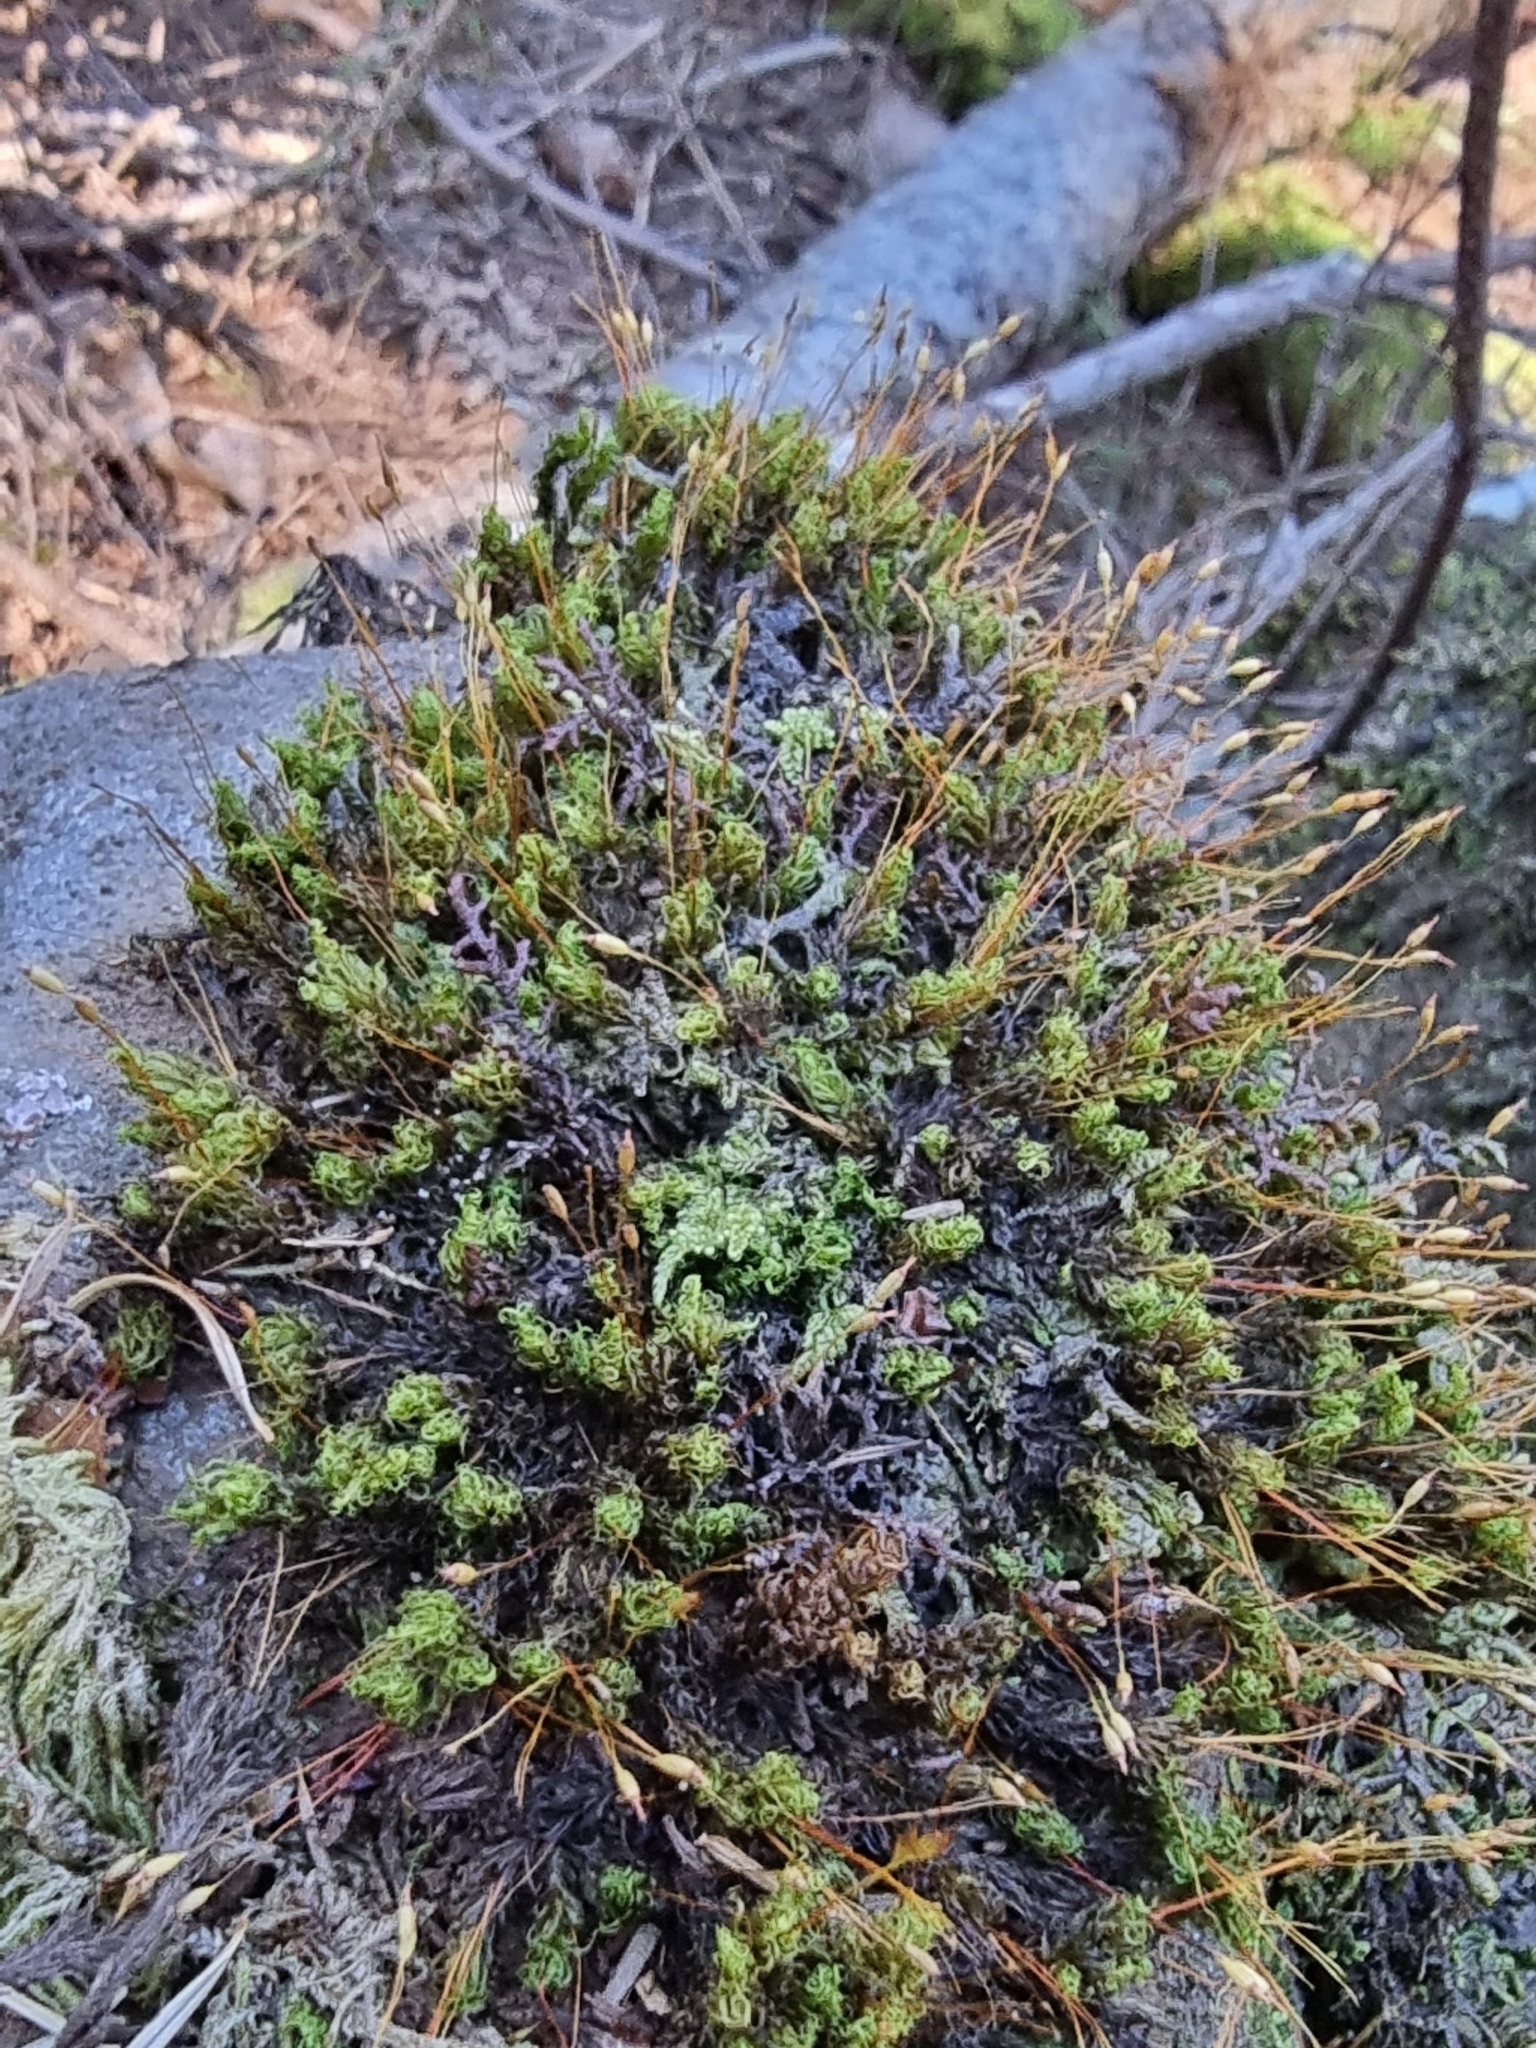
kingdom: Plantae
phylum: Bryophyta
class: Bryopsida
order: Grimmiales
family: Ptychomitriaceae
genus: Ptychomitrium
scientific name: Ptychomitrium polyphyllum
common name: Greater pincushion
